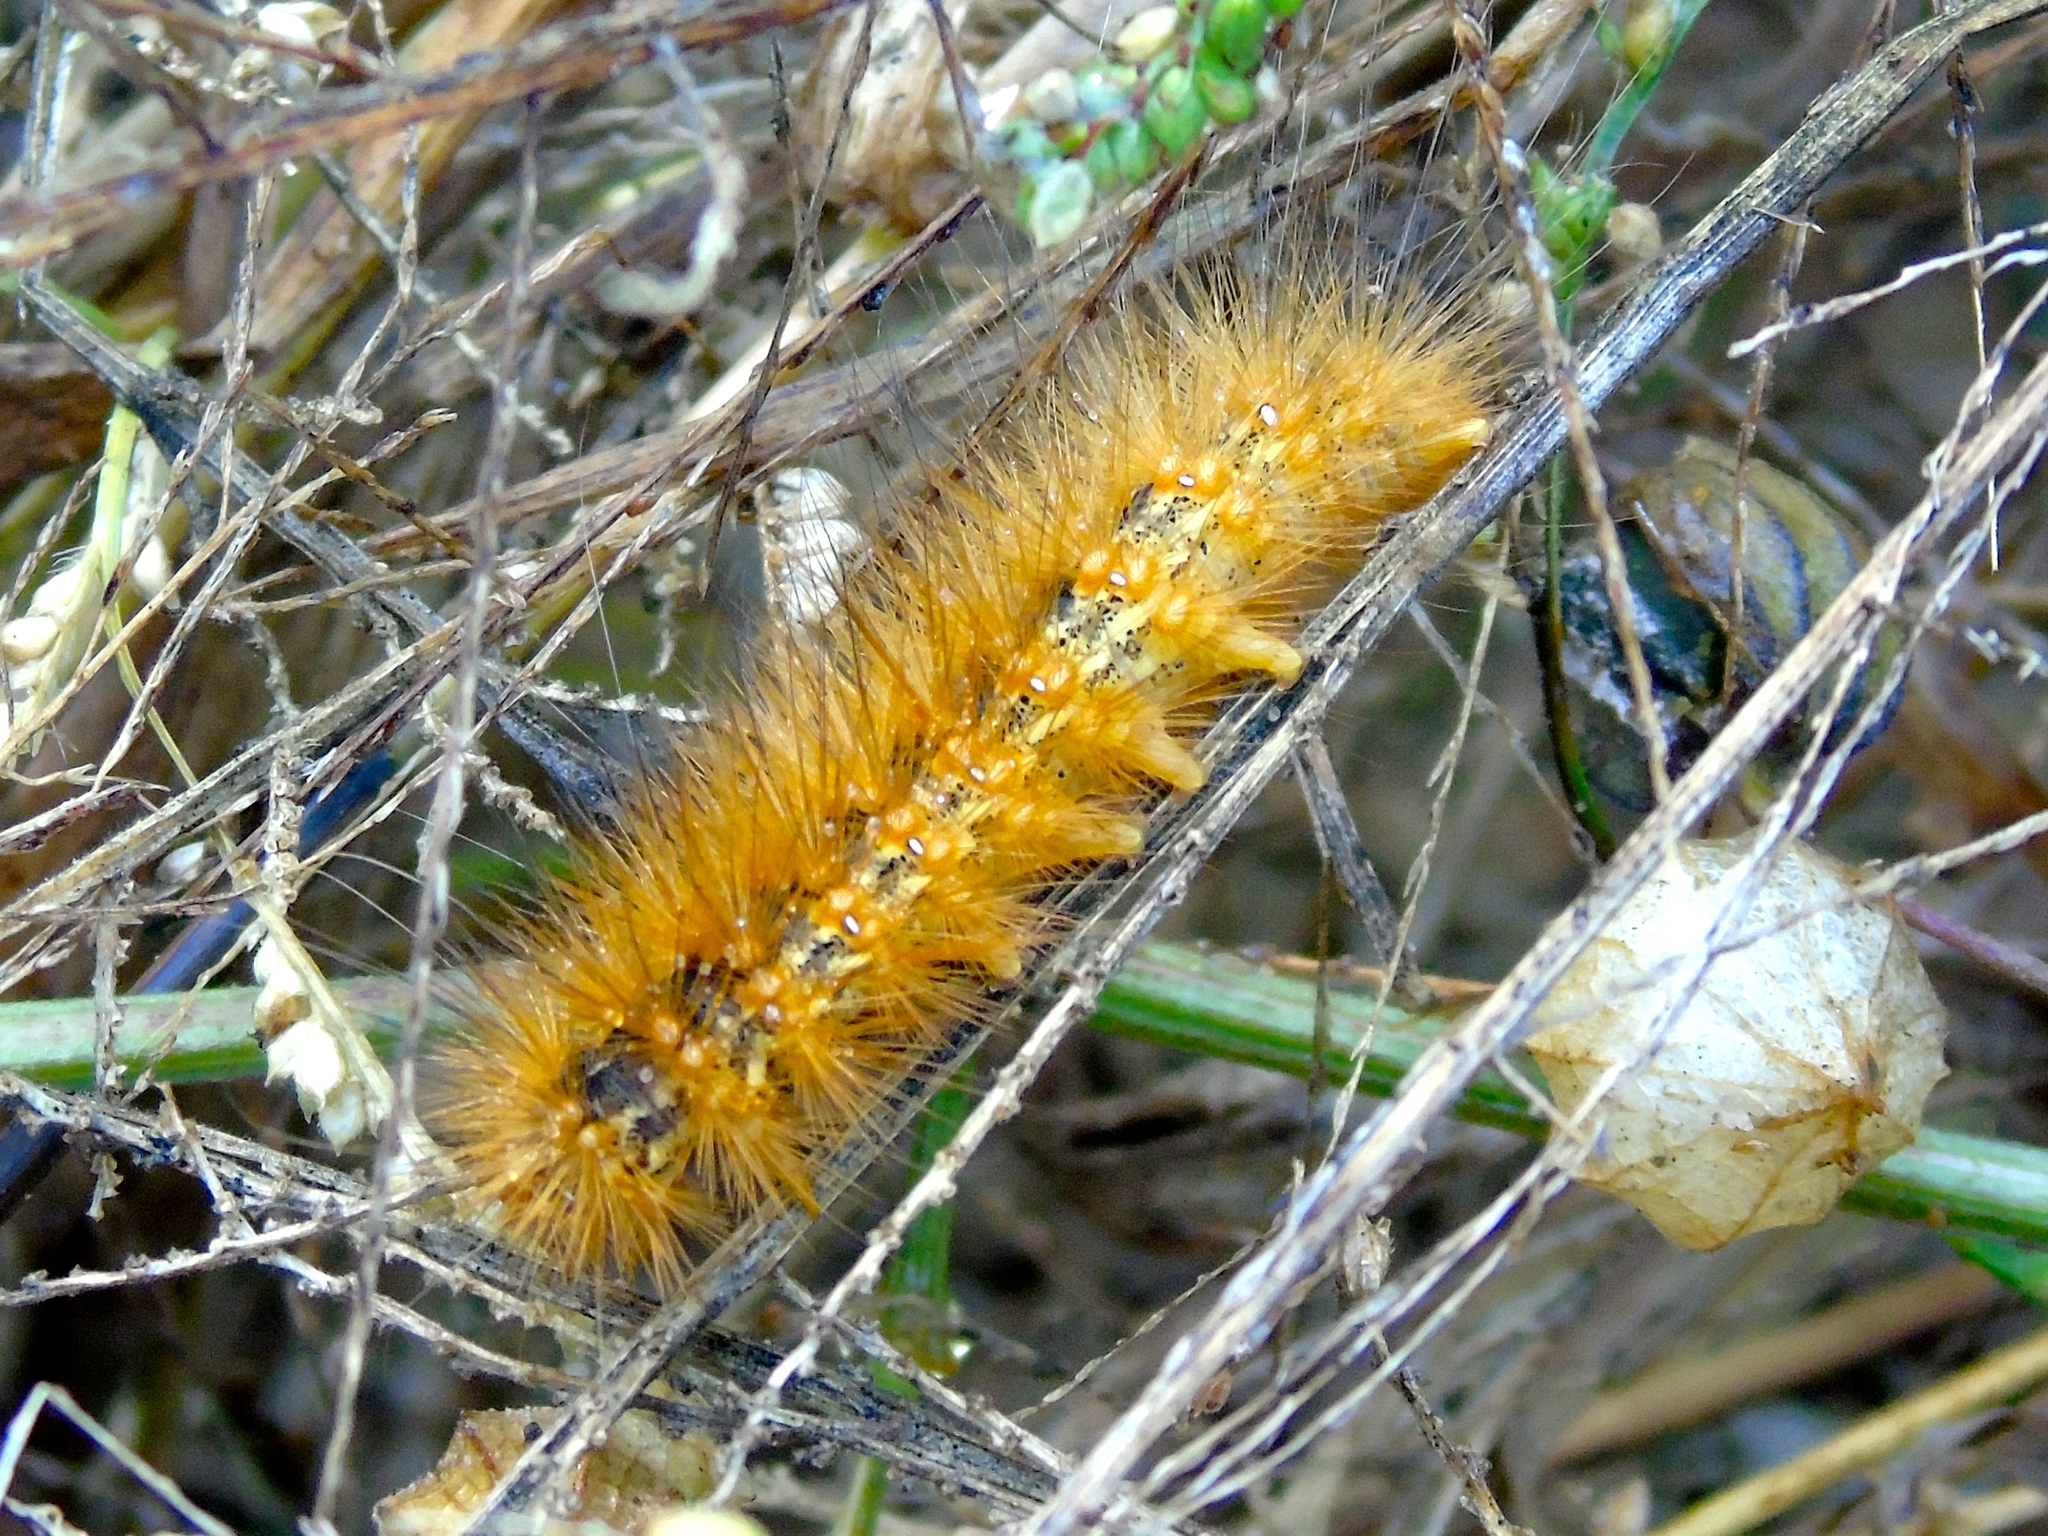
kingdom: Animalia
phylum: Arthropoda
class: Insecta
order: Lepidoptera
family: Erebidae
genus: Estigmene
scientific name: Estigmene acrea
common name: Salt marsh moth
